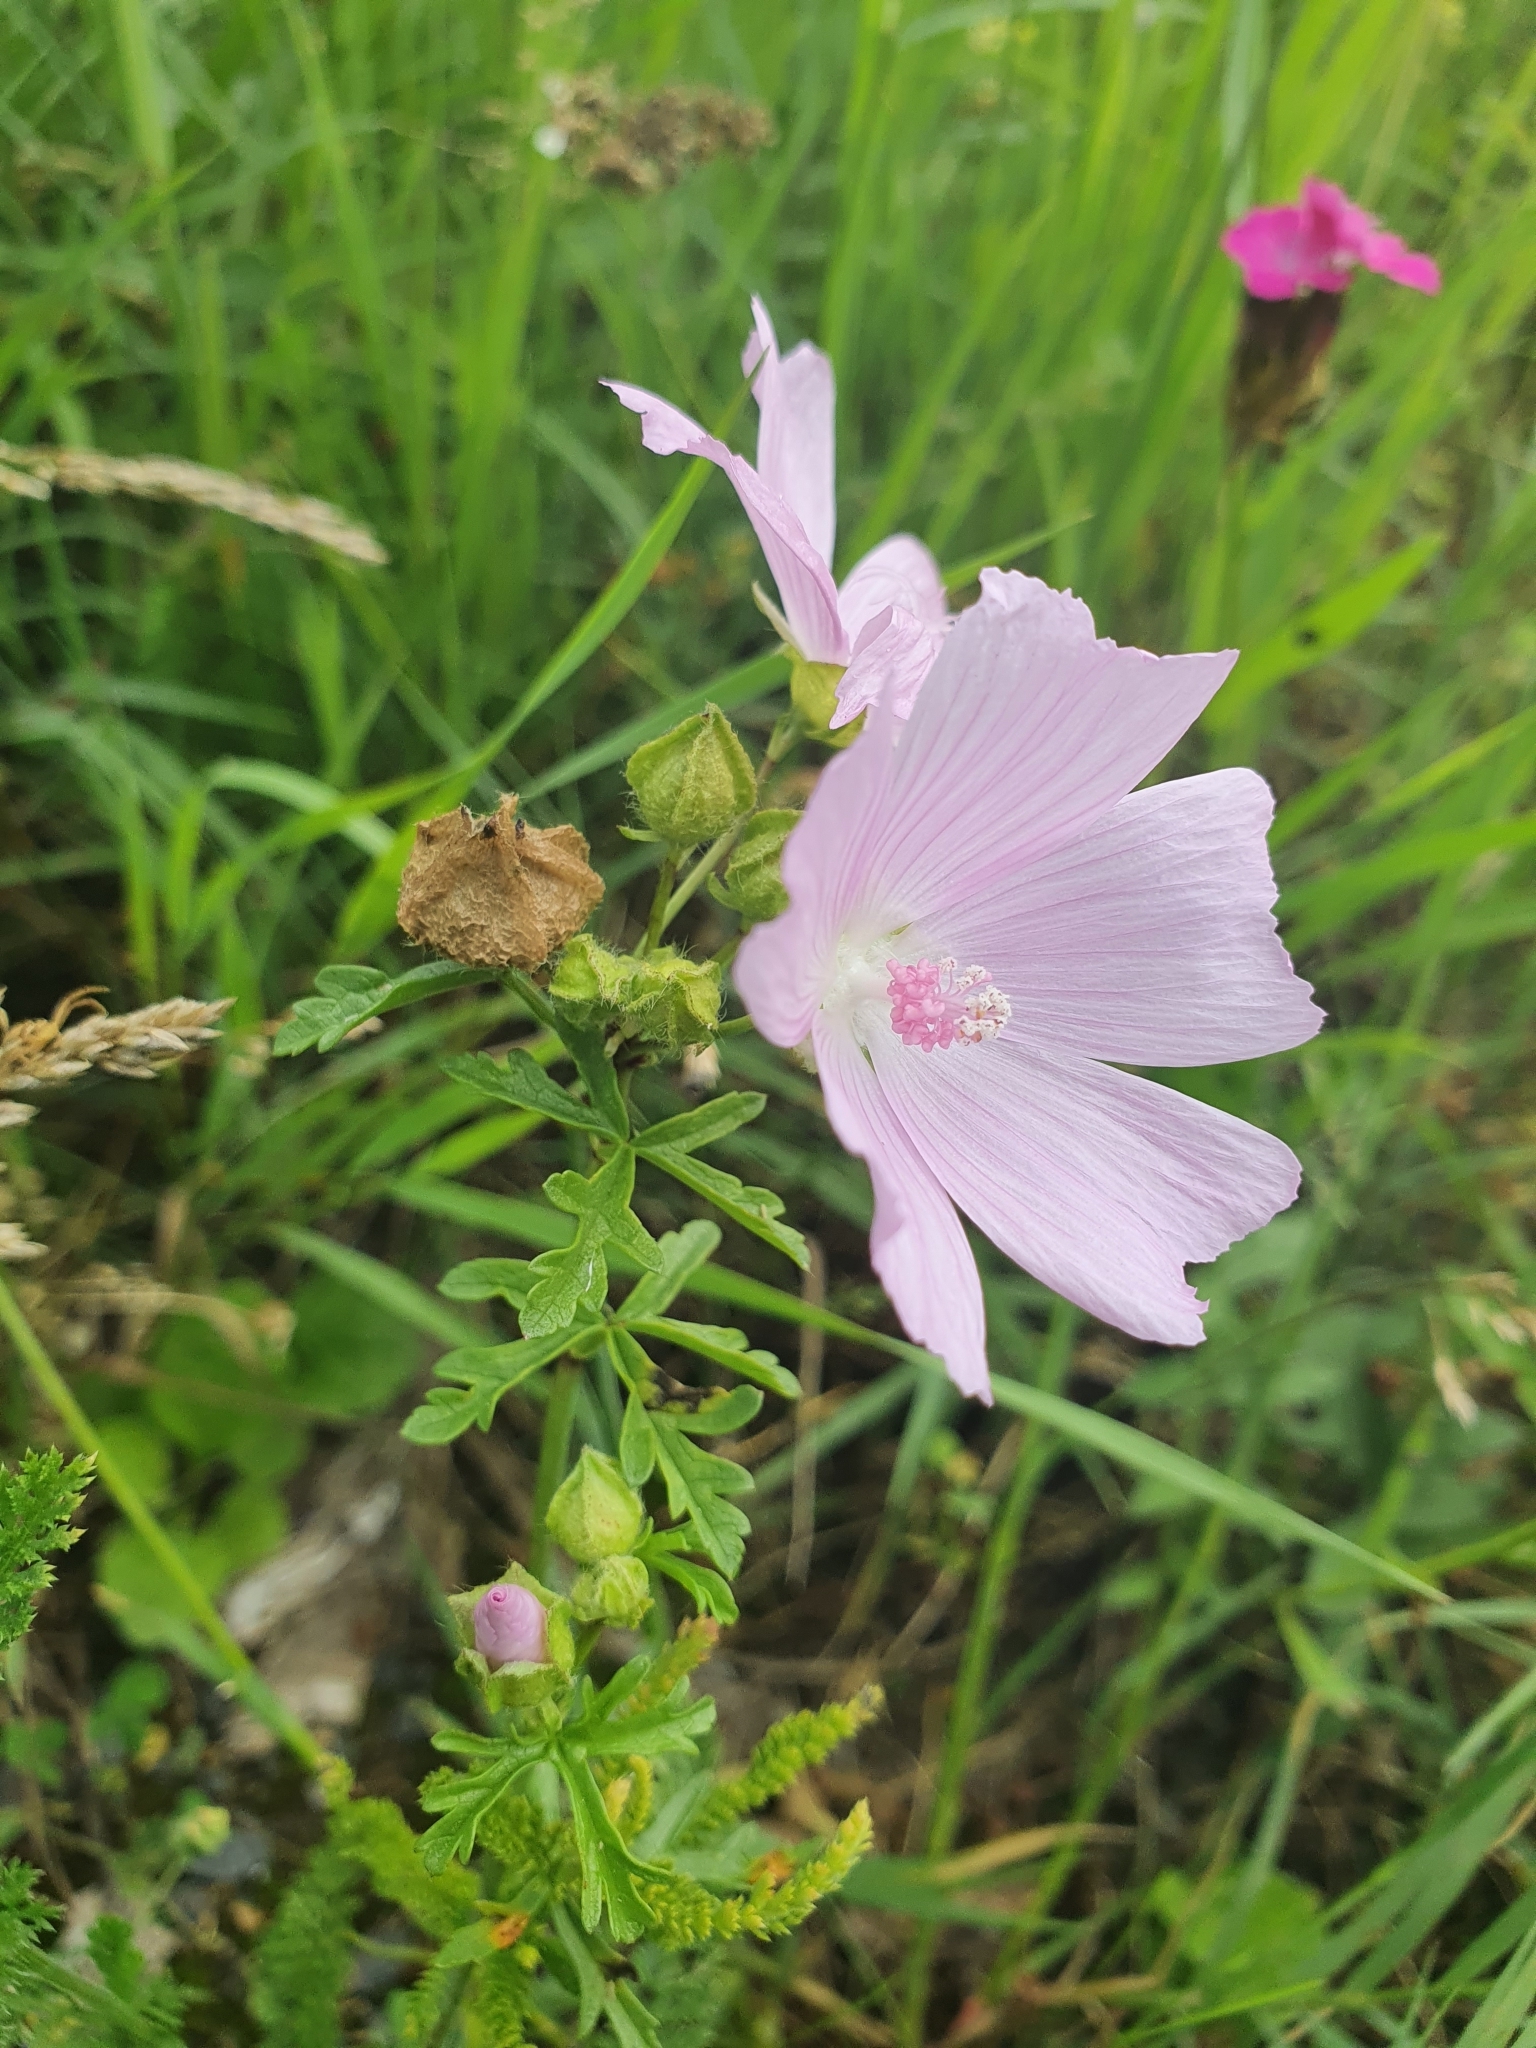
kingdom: Plantae
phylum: Tracheophyta
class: Magnoliopsida
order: Malvales
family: Malvaceae
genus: Malva
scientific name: Malva moschata
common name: Musk mallow
